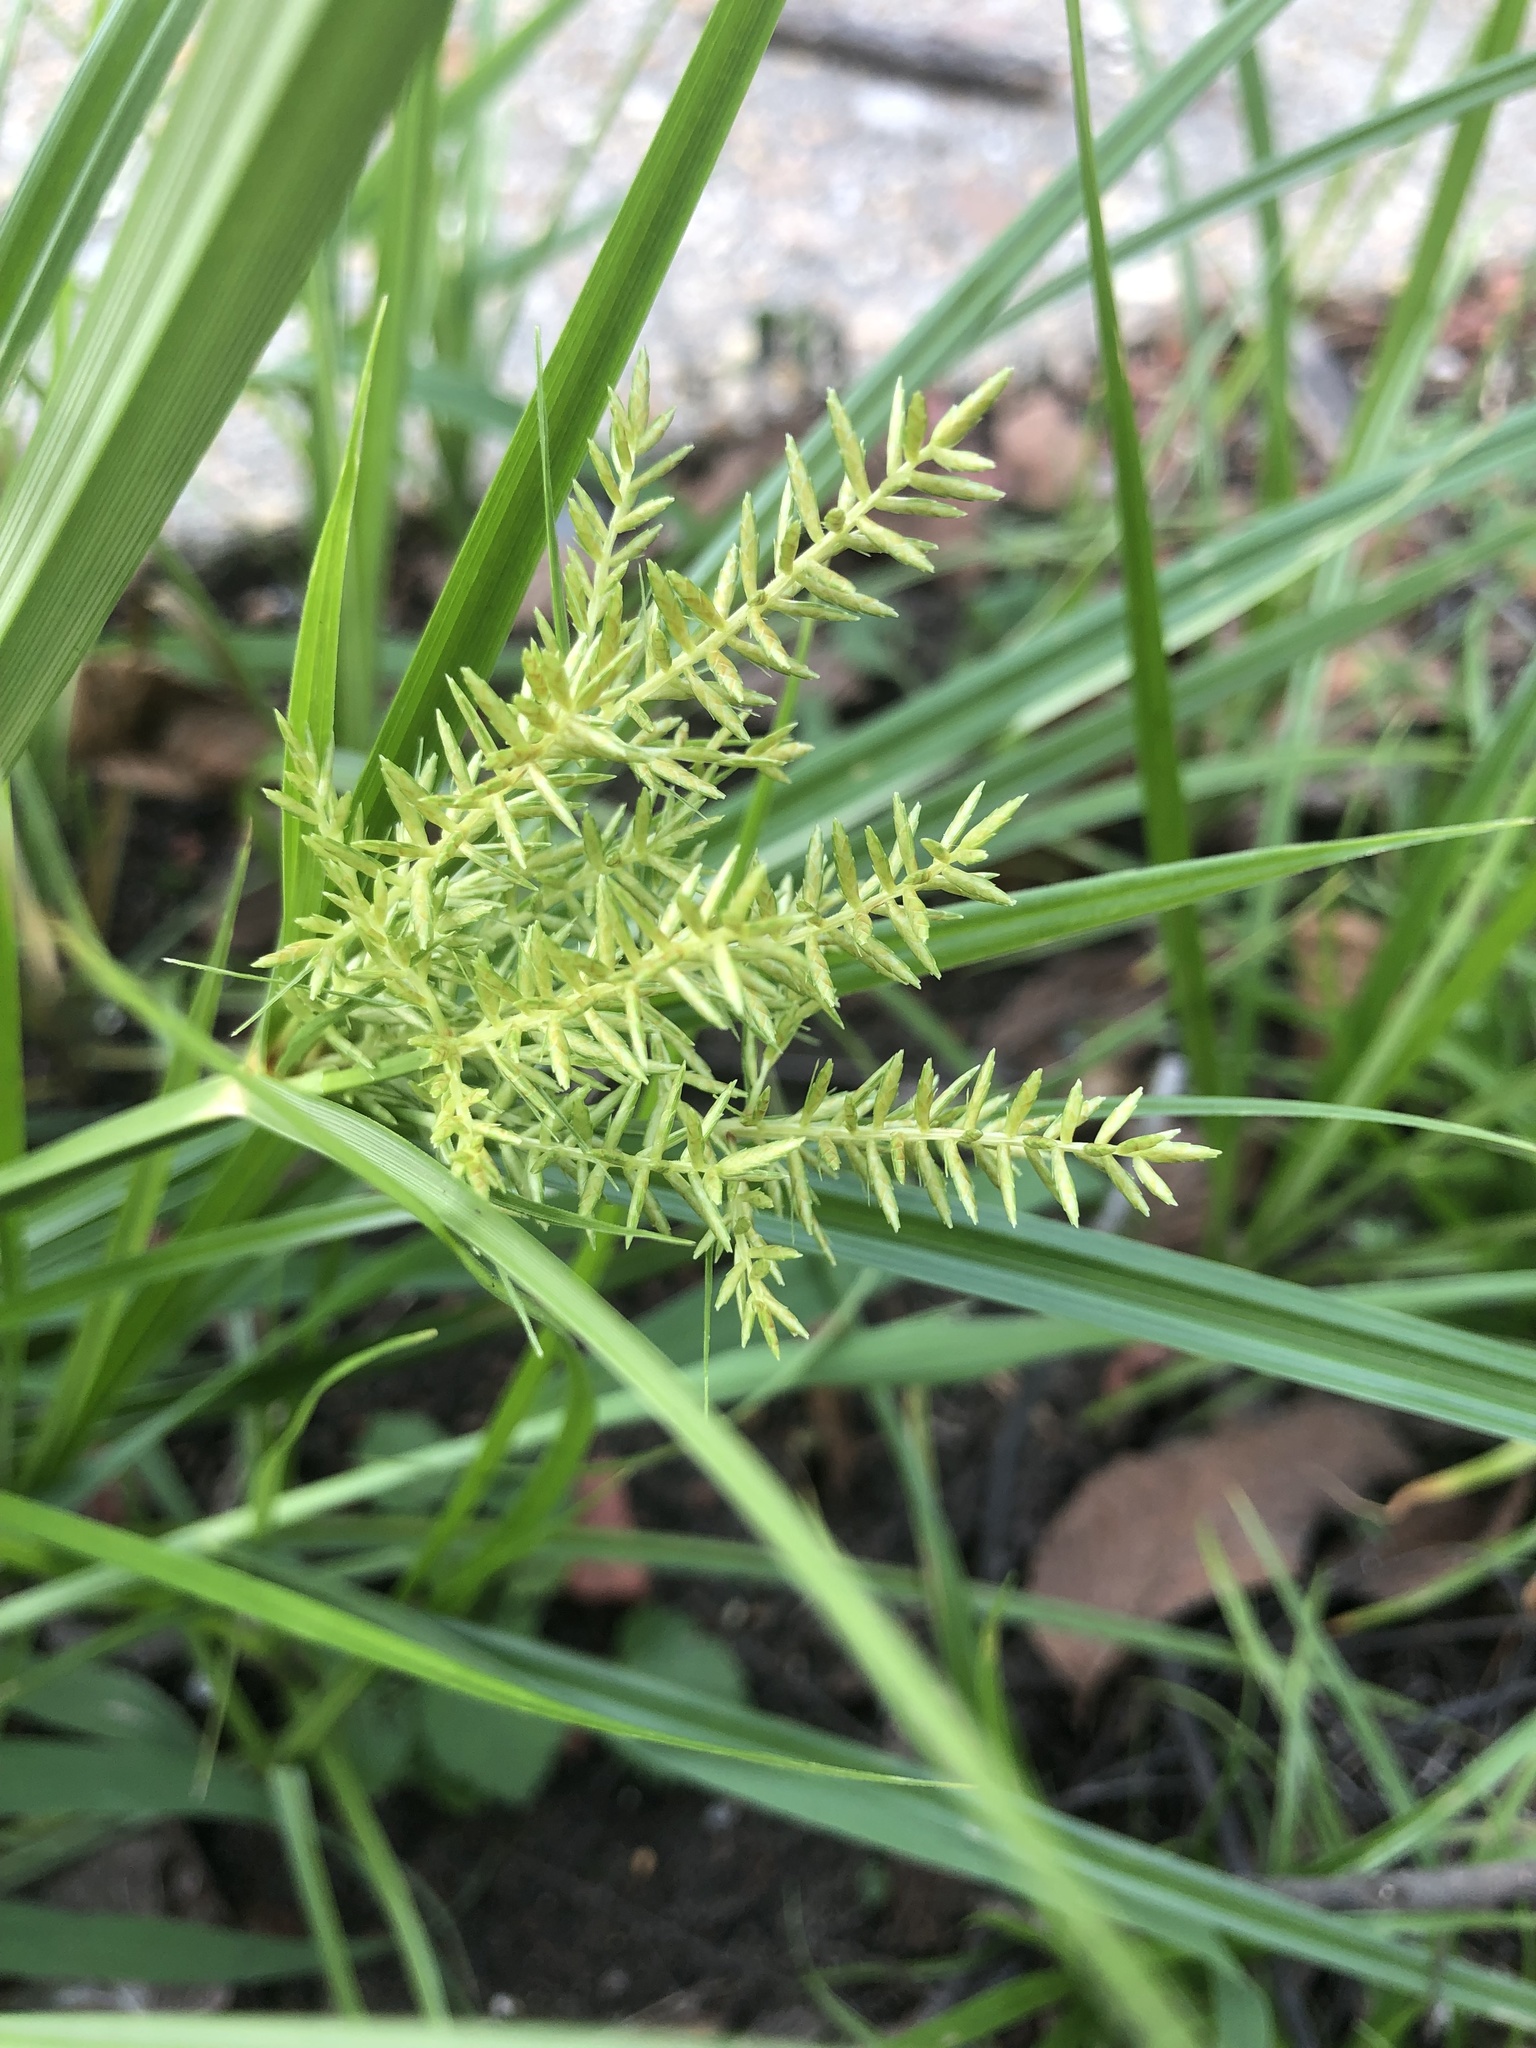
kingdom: Plantae
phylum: Tracheophyta
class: Liliopsida
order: Poales
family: Cyperaceae
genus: Cyperus
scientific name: Cyperus esculentus
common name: Yellow nutsedge
